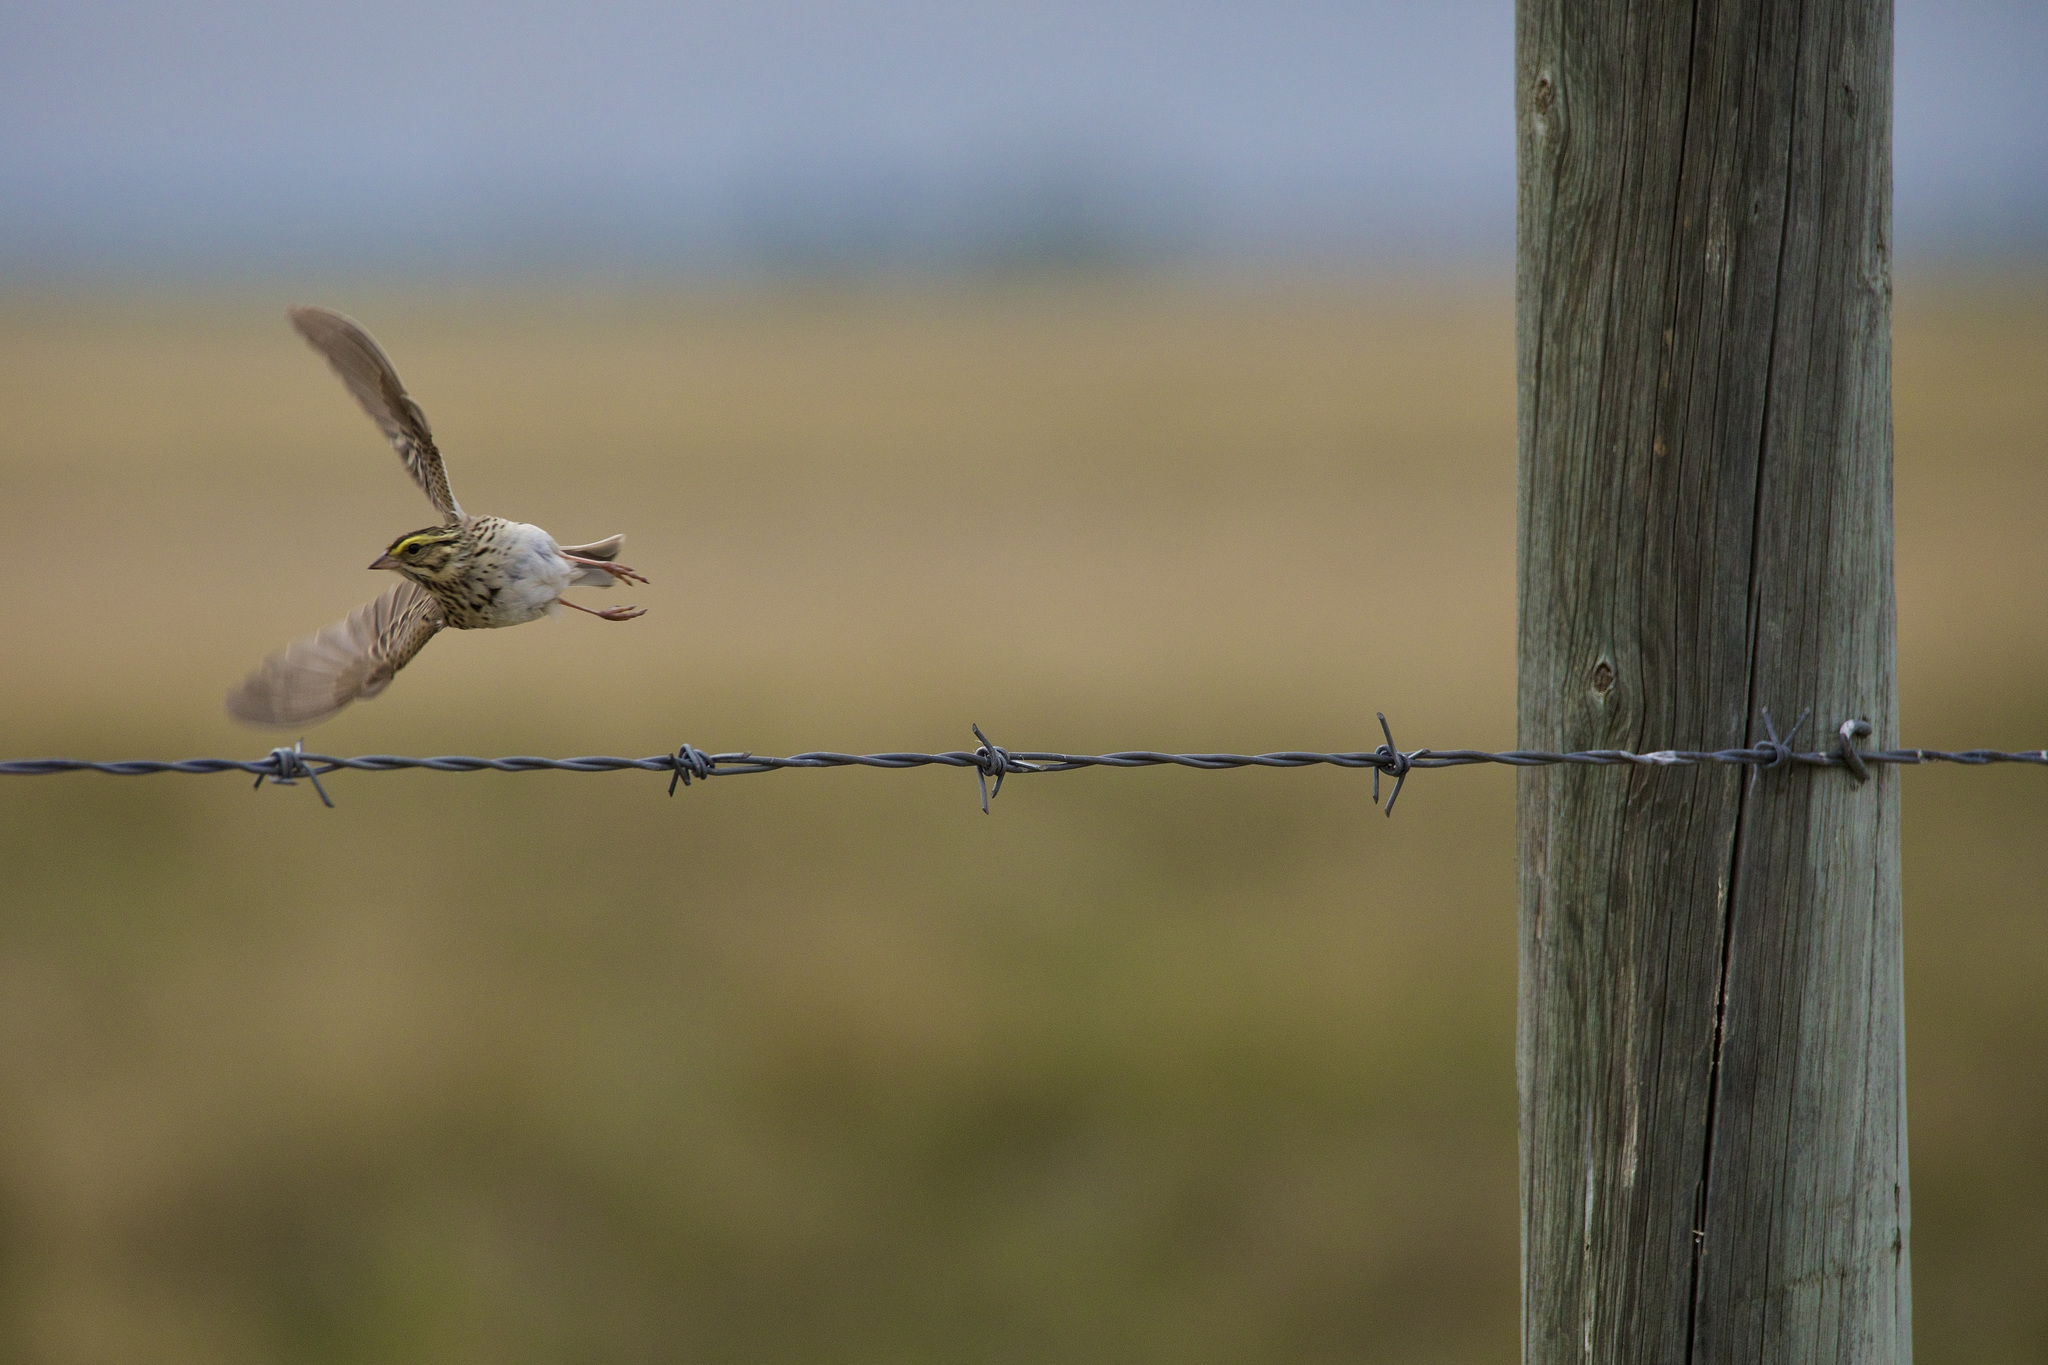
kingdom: Animalia
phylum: Chordata
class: Aves
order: Passeriformes
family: Passerellidae
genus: Passerculus
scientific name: Passerculus sandwichensis
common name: Savannah sparrow
